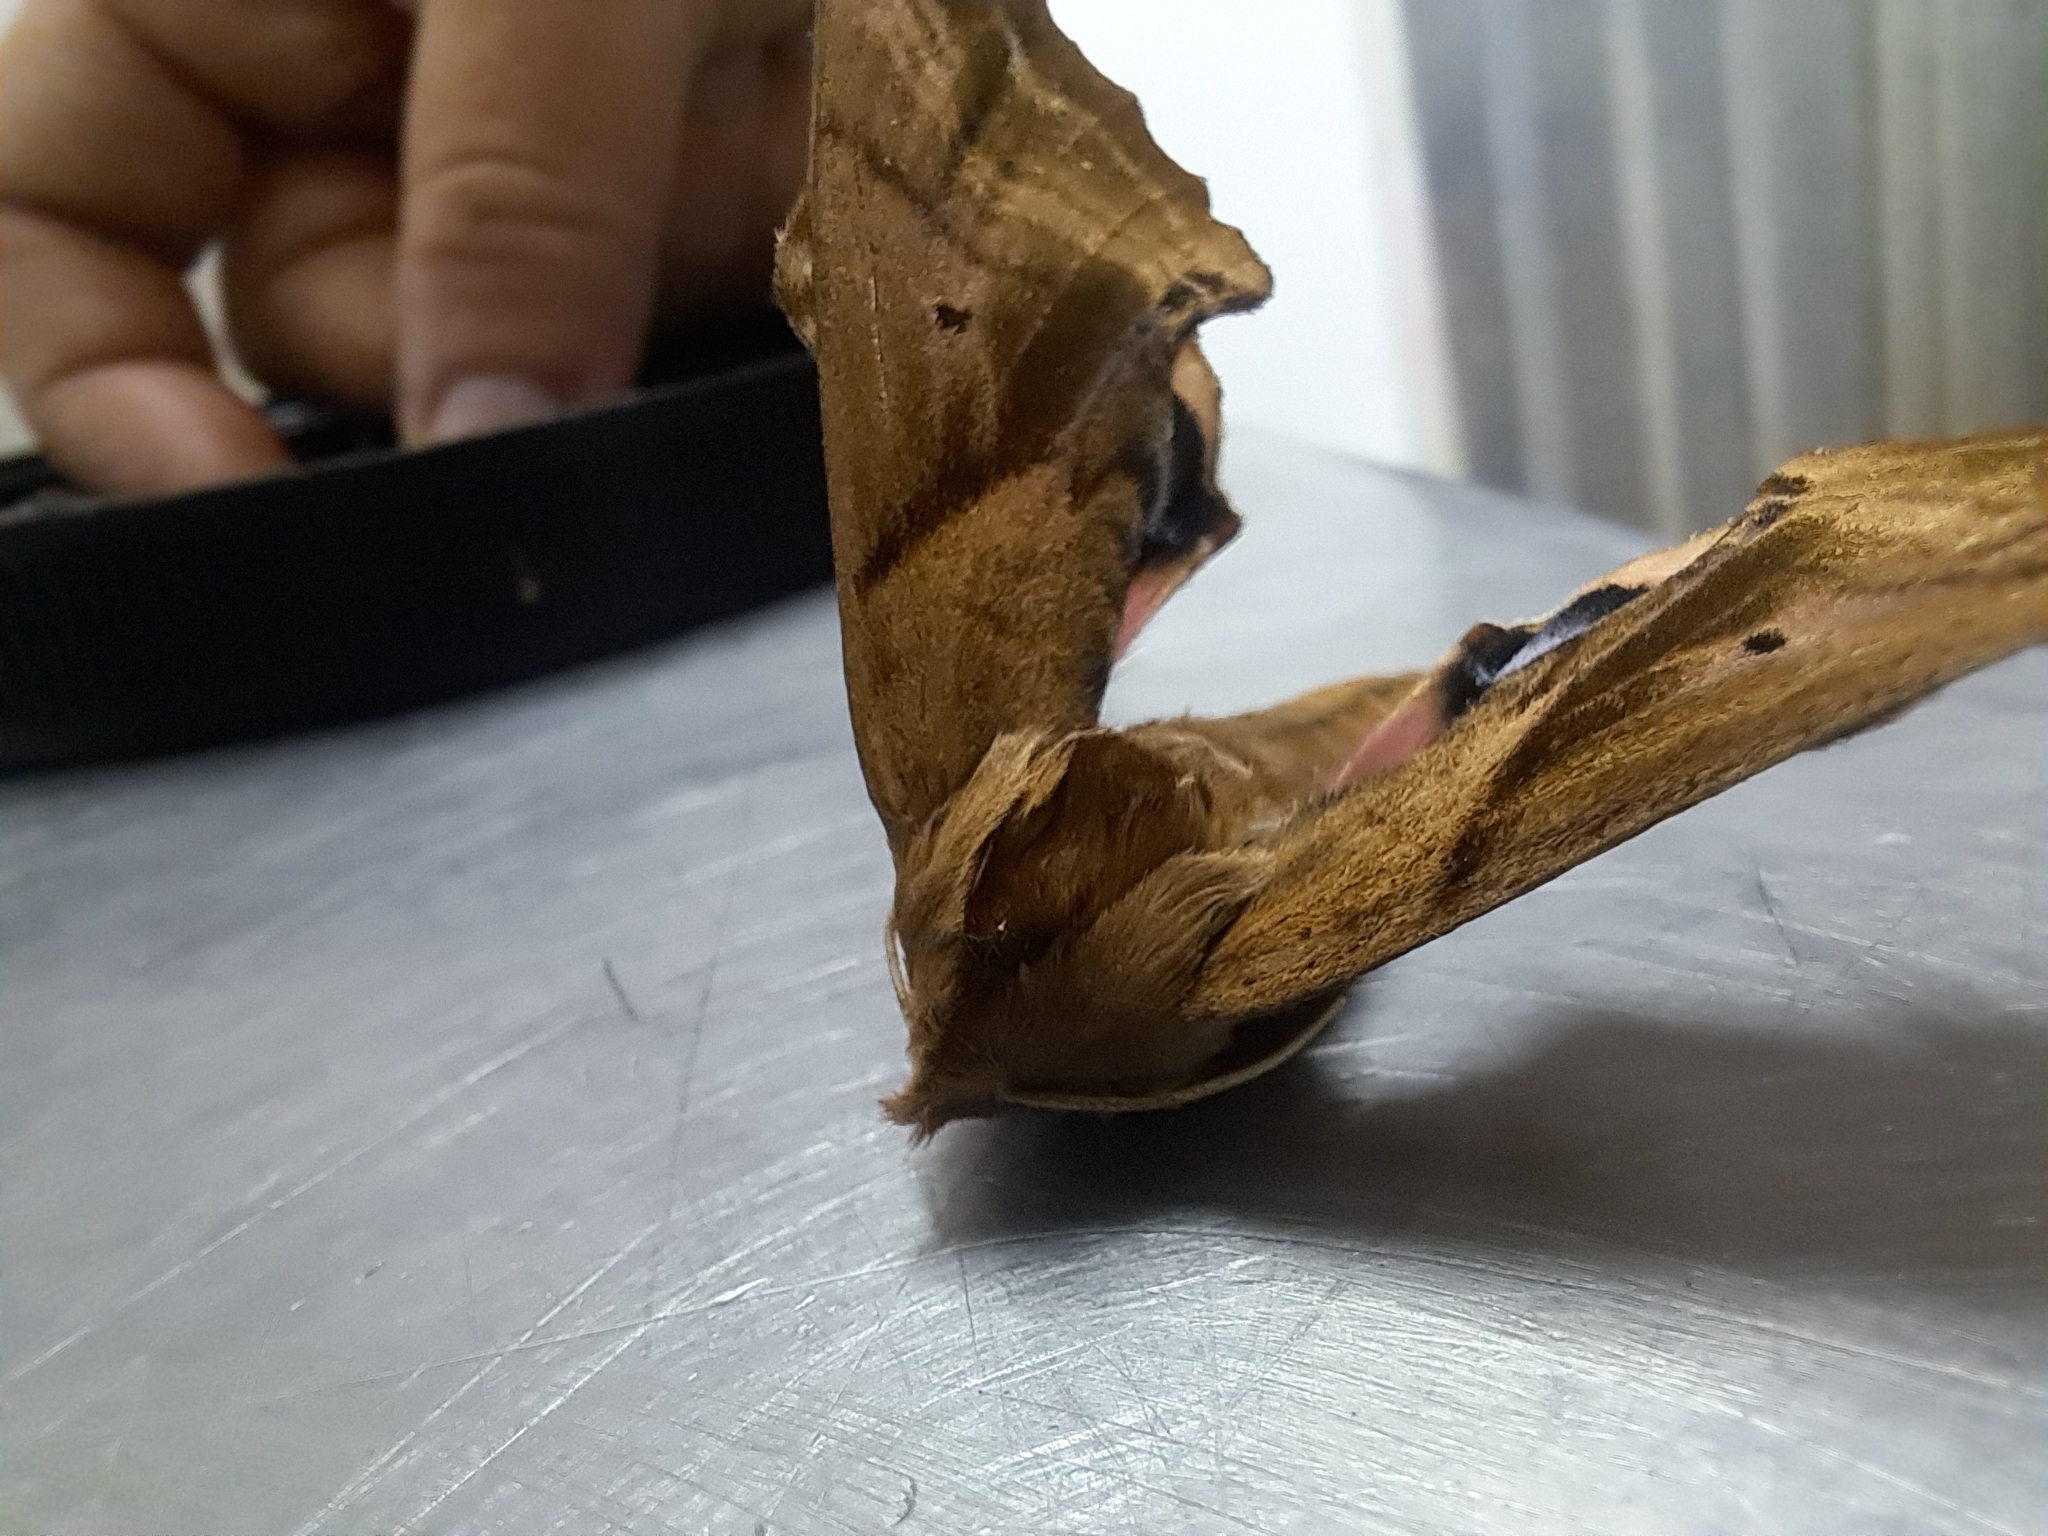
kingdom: Animalia
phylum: Arthropoda
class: Insecta
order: Lepidoptera
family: Sphingidae
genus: Paonias
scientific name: Paonias excaecata
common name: Blind-eyed sphinx
